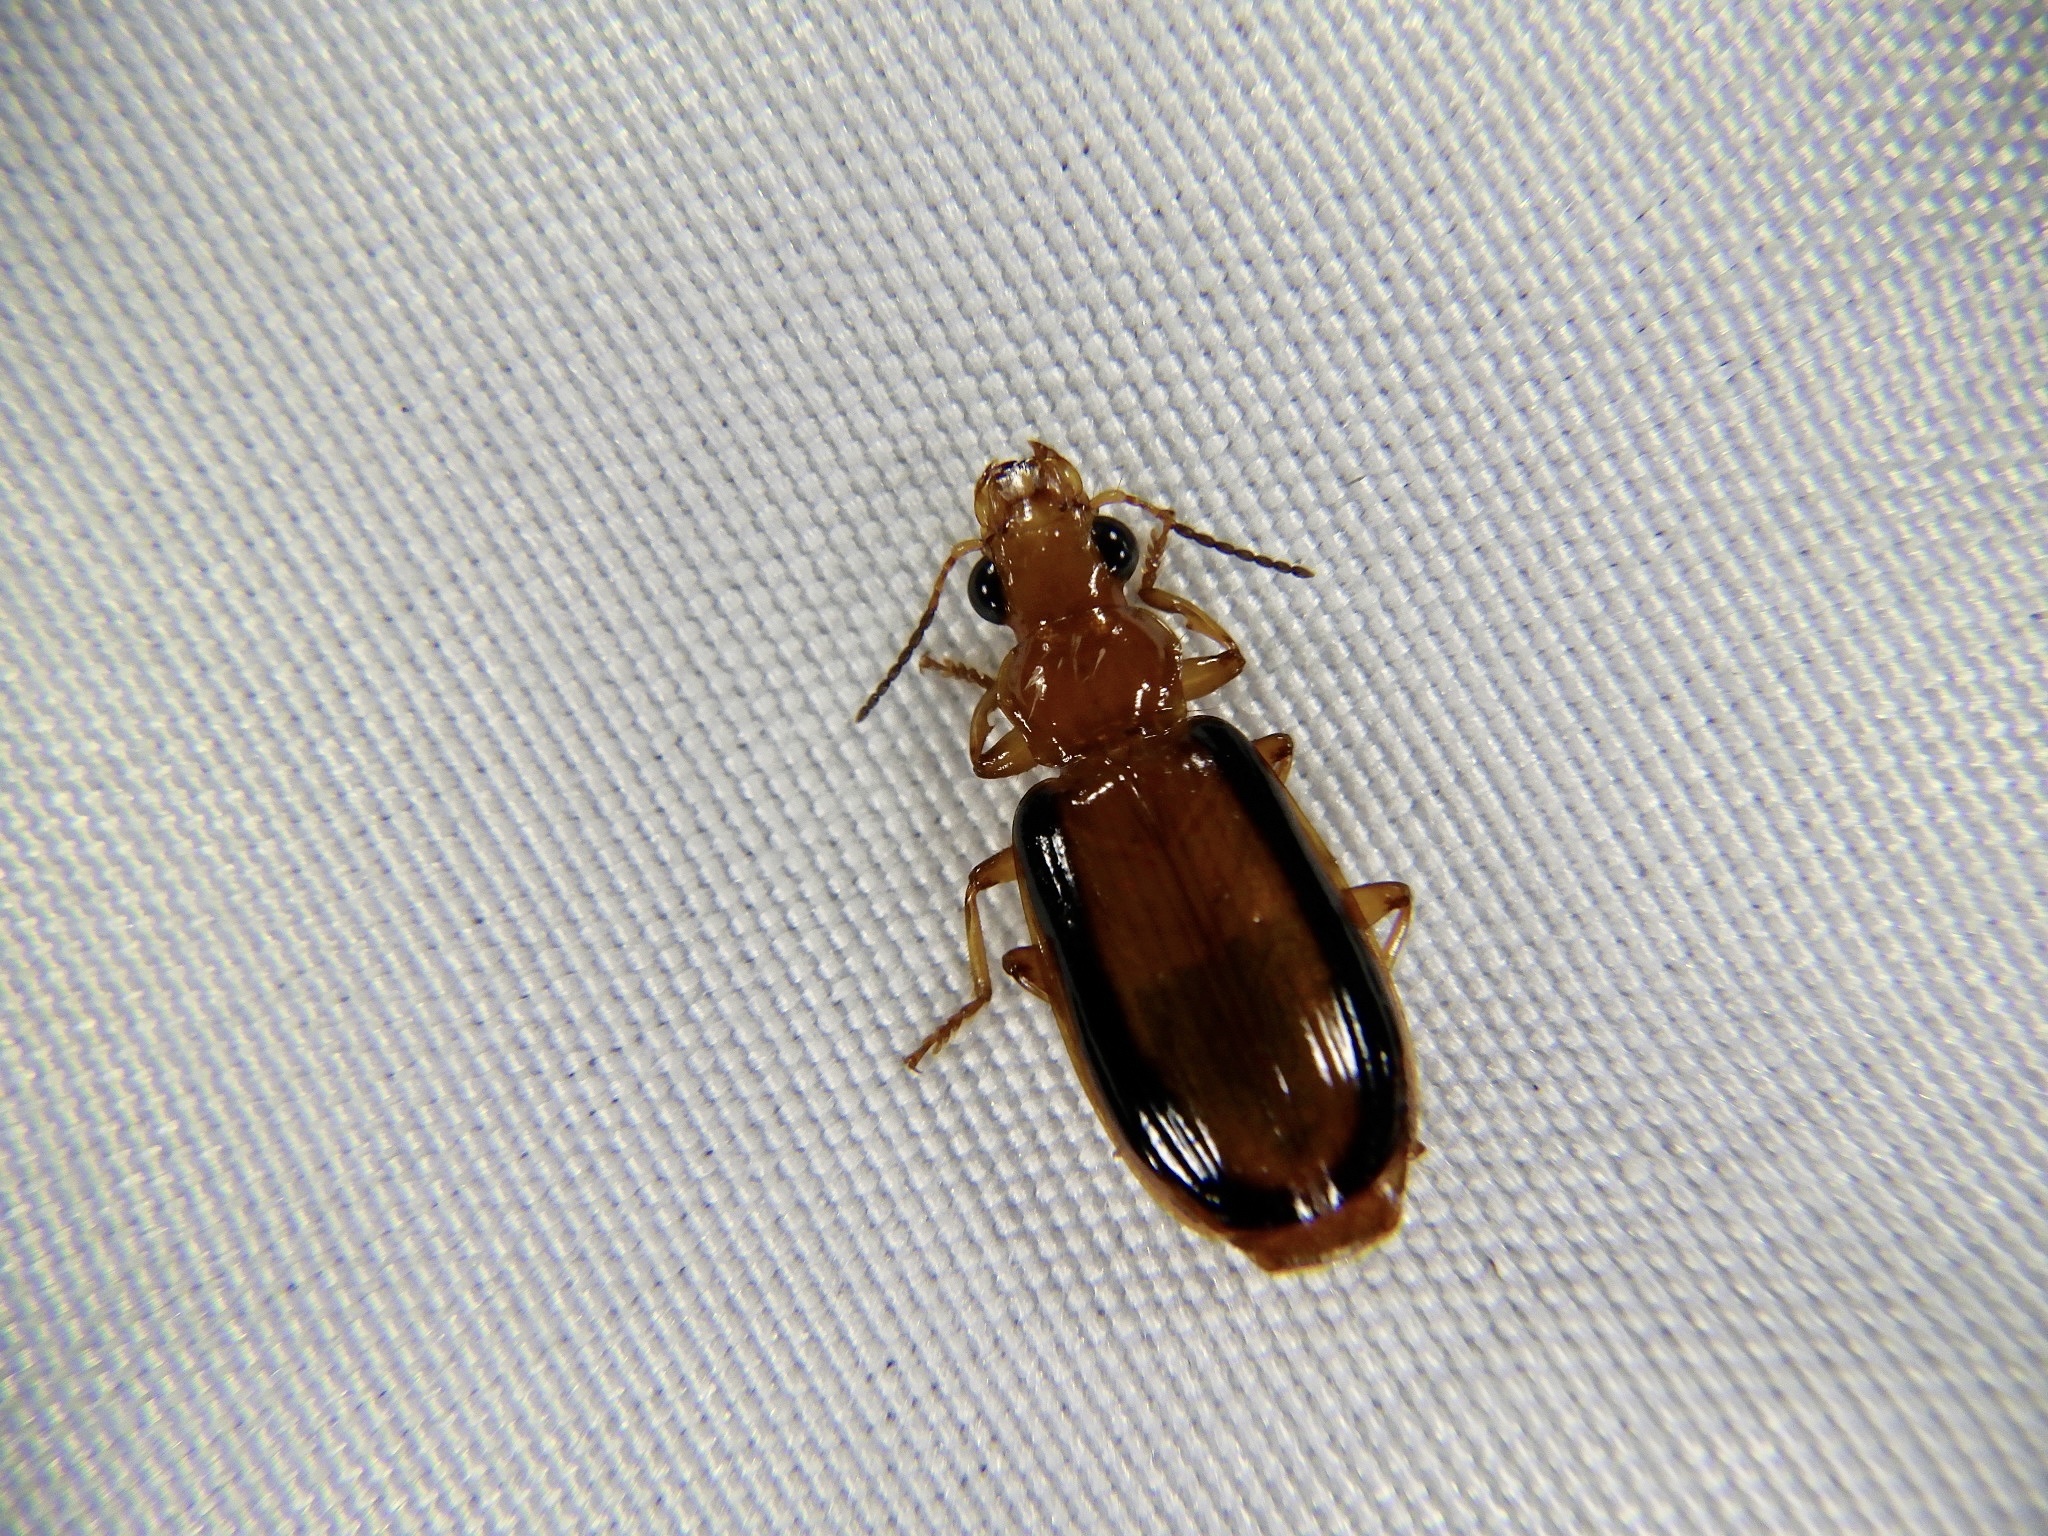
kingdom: Animalia
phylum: Arthropoda
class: Insecta
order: Coleoptera
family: Carabidae
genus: Parena
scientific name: Parena nigrolineata
